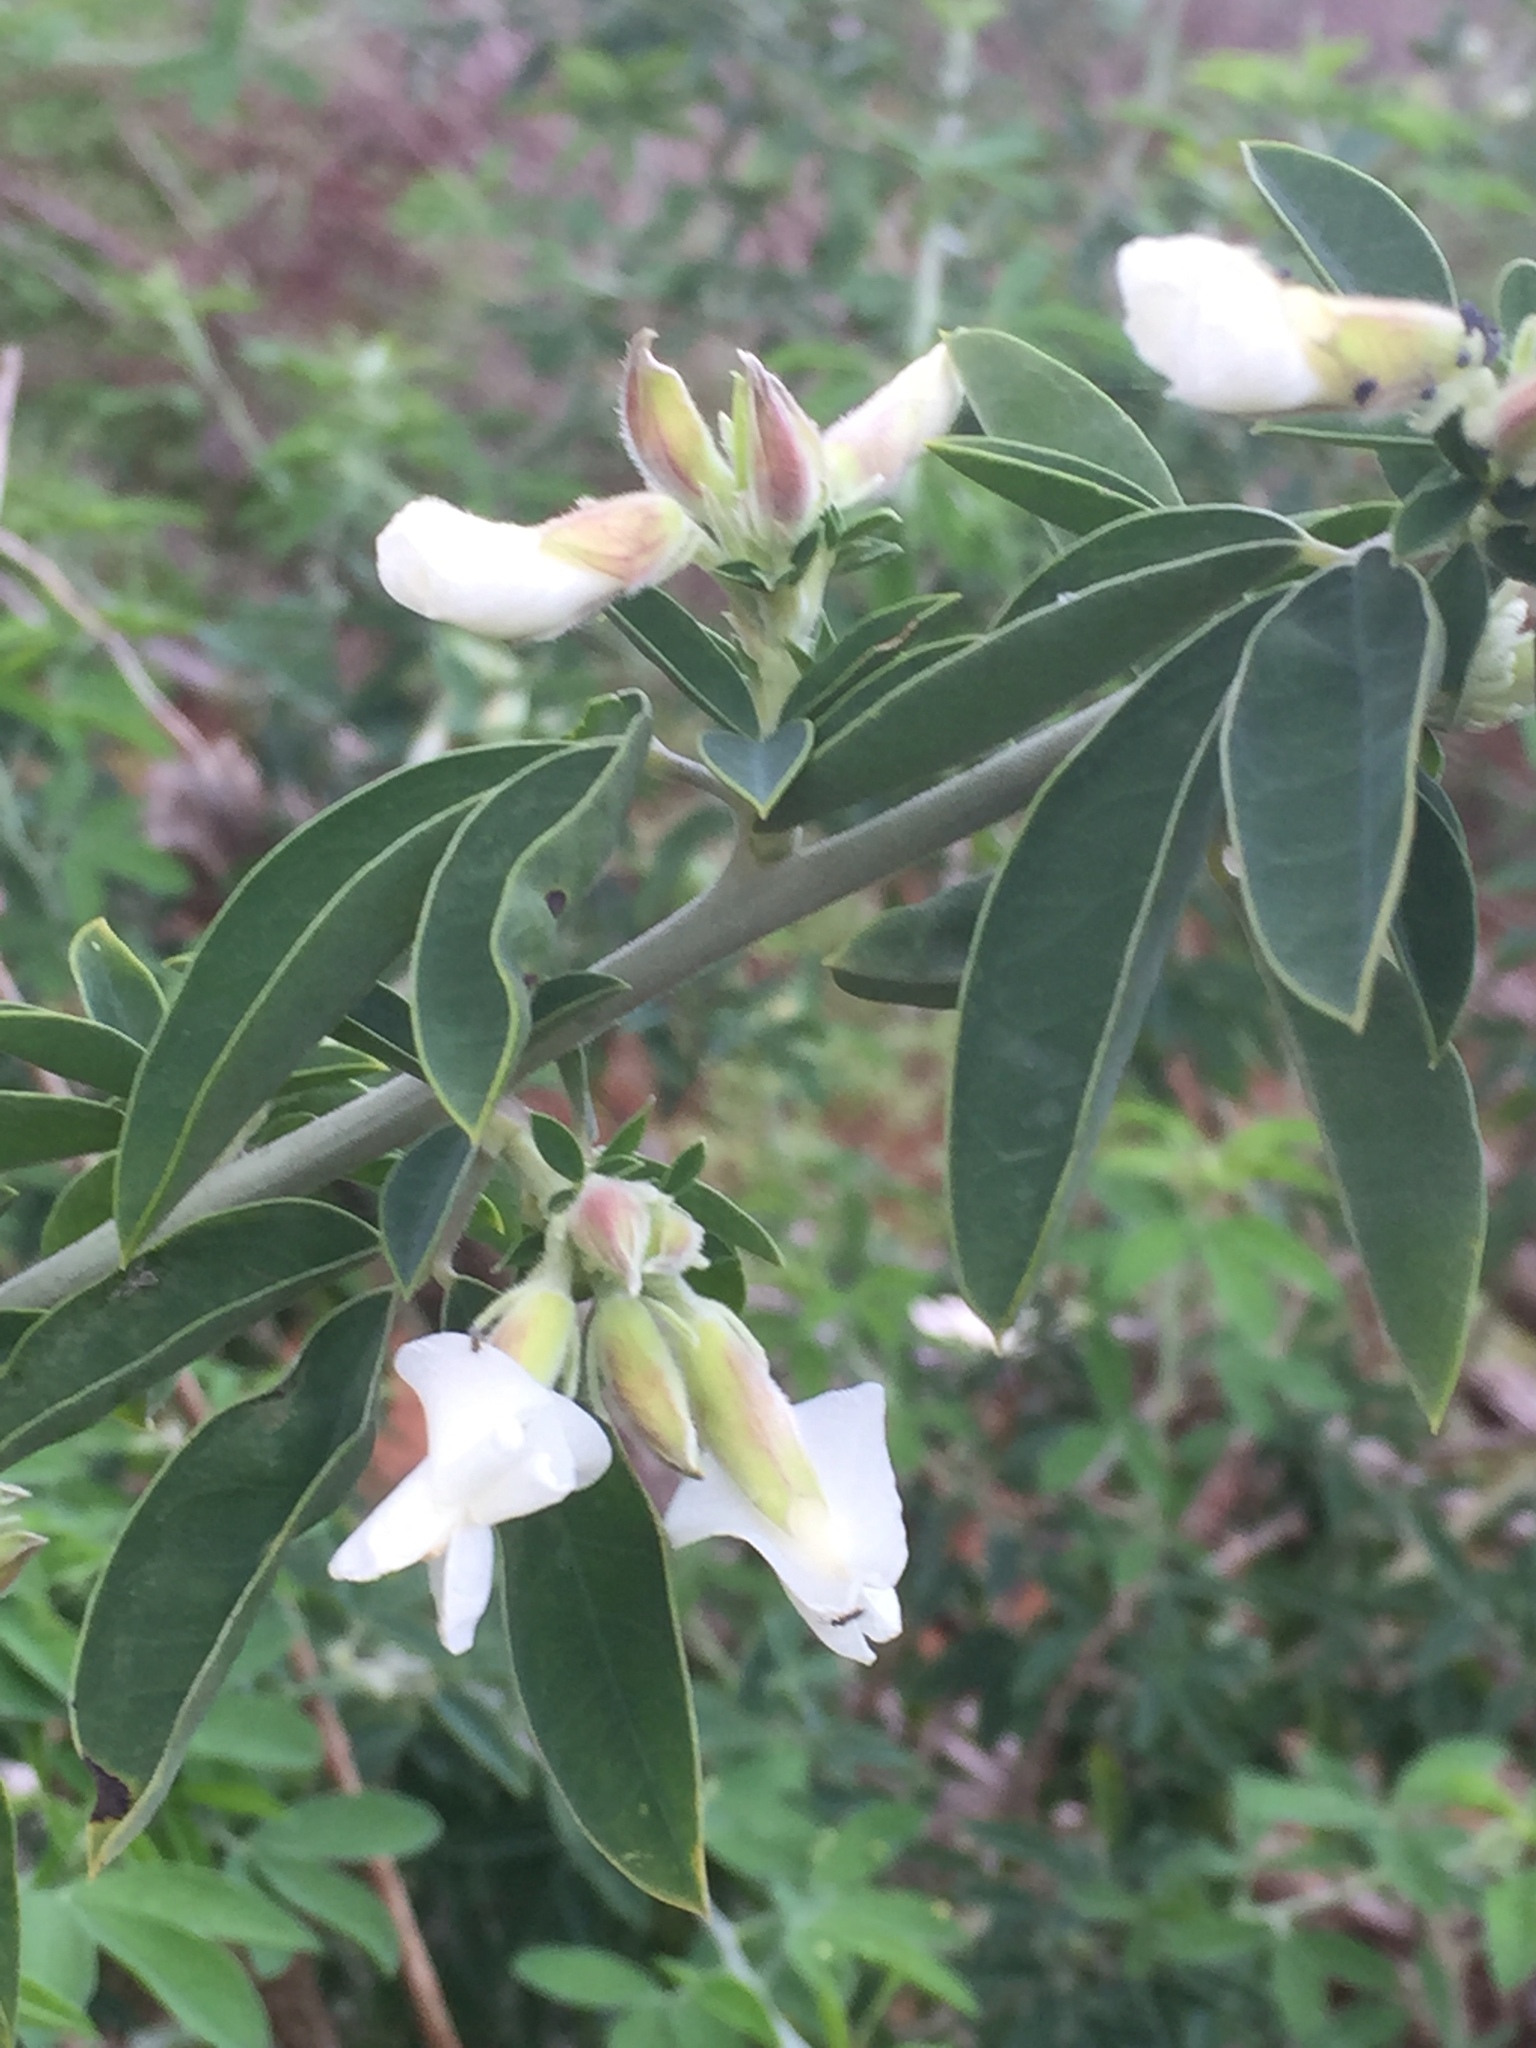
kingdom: Plantae
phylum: Tracheophyta
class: Magnoliopsida
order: Fabales
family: Fabaceae
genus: Chamaecytisus
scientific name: Chamaecytisus prolifer
